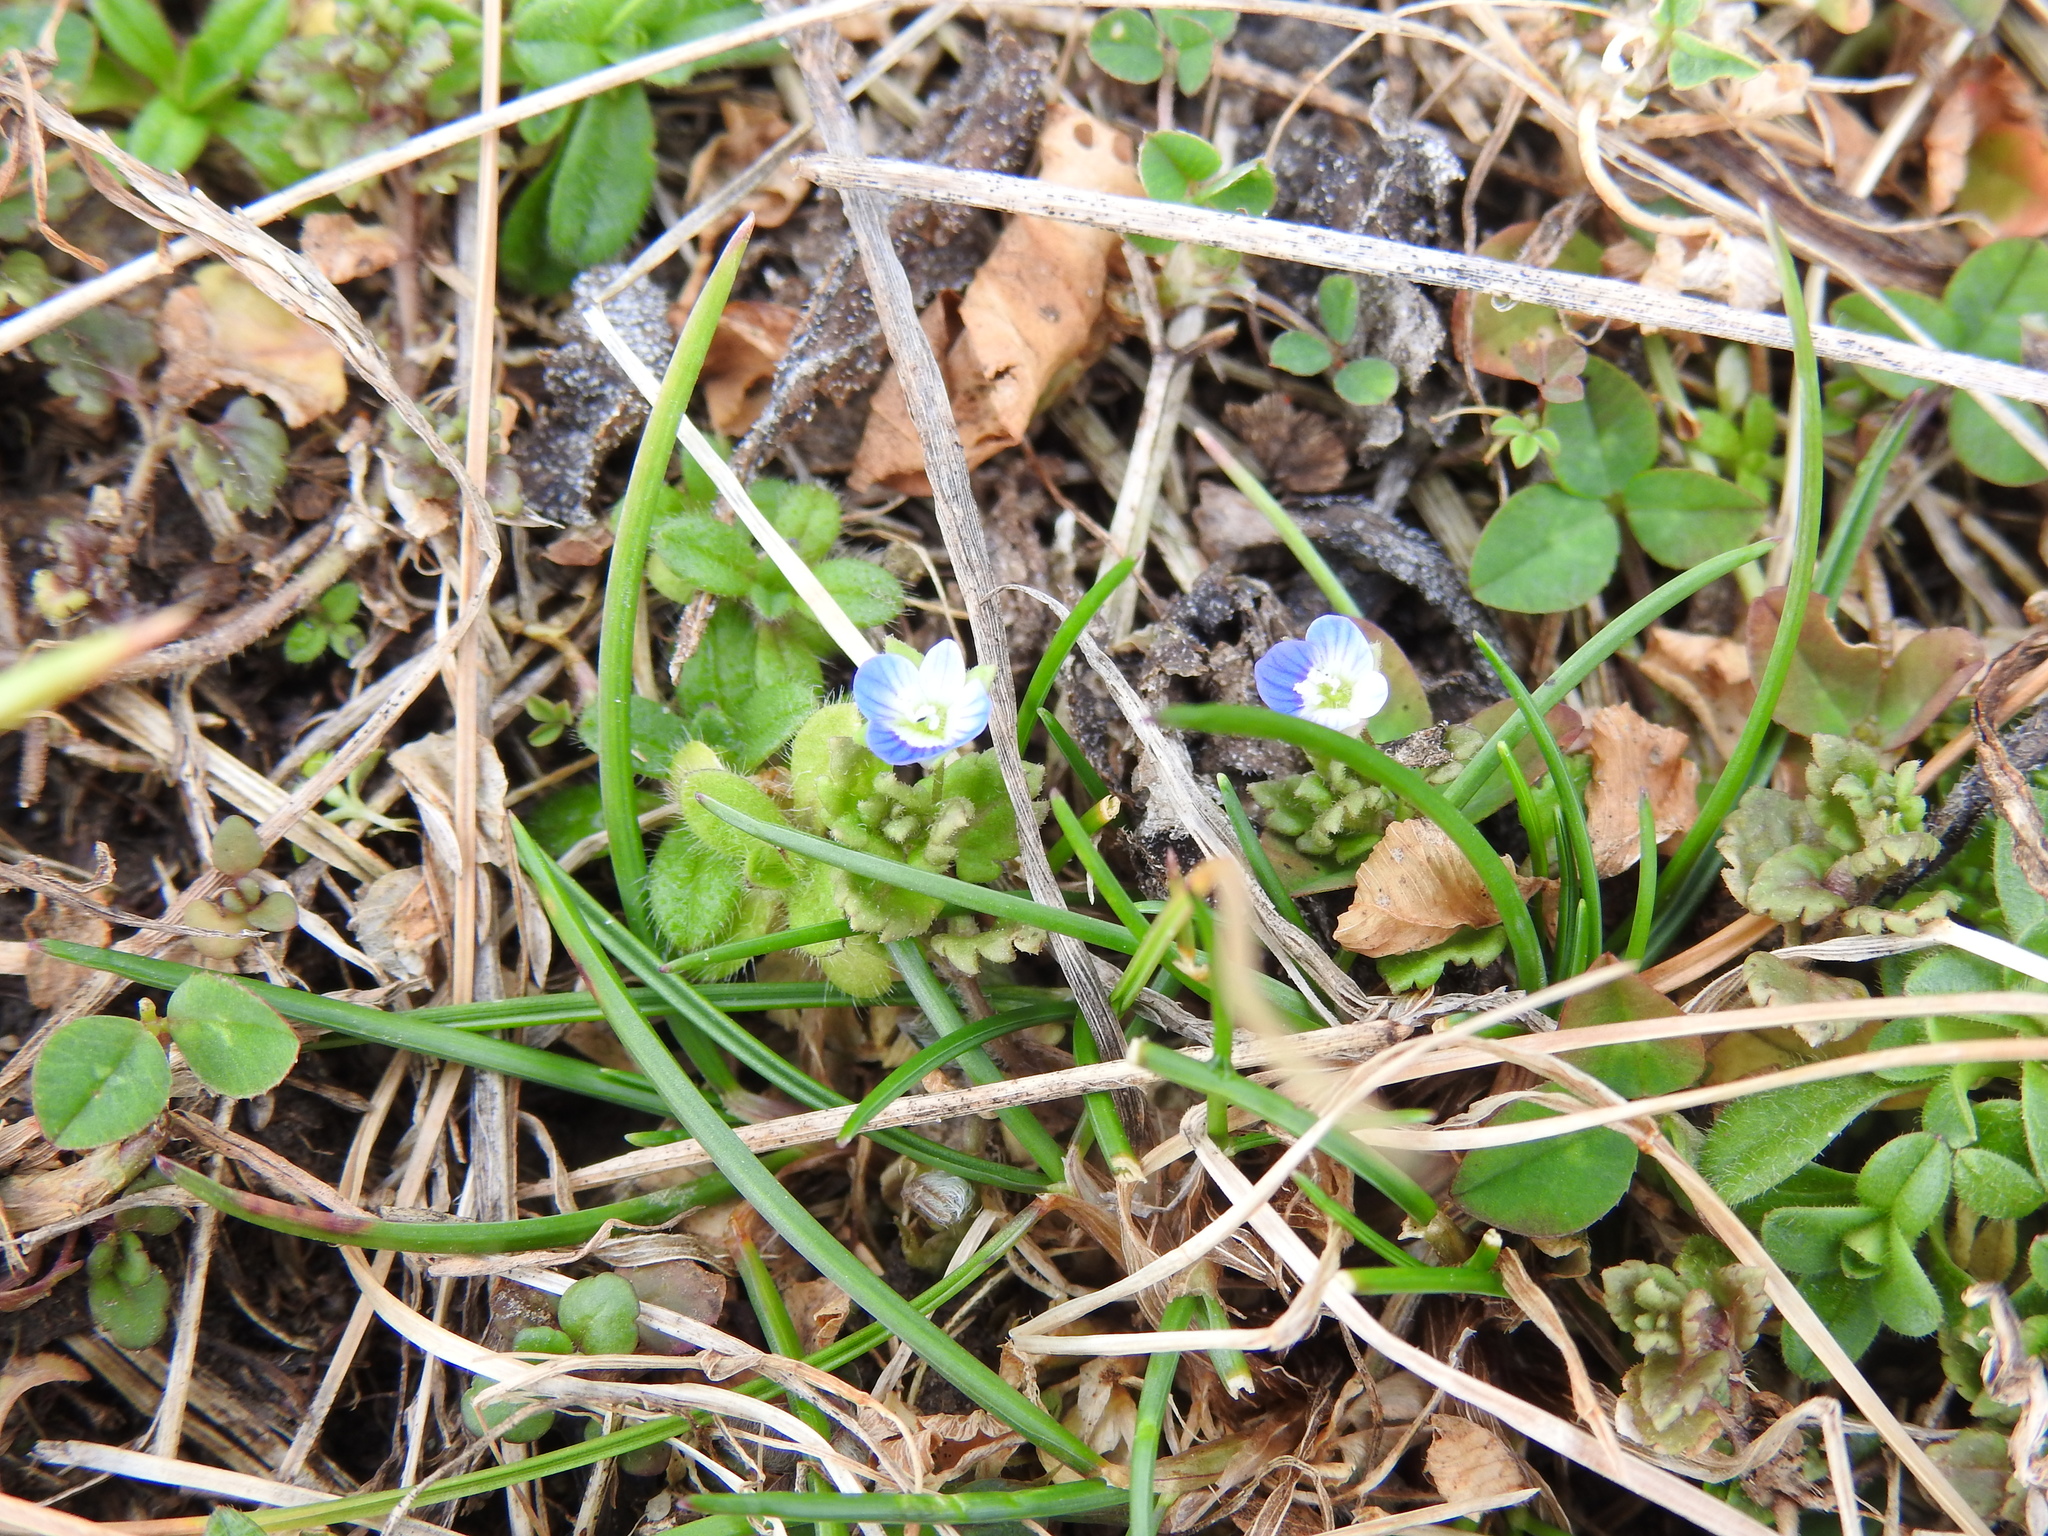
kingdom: Plantae
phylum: Tracheophyta
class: Magnoliopsida
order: Lamiales
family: Plantaginaceae
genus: Veronica
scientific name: Veronica polita
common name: Grey field-speedwell
